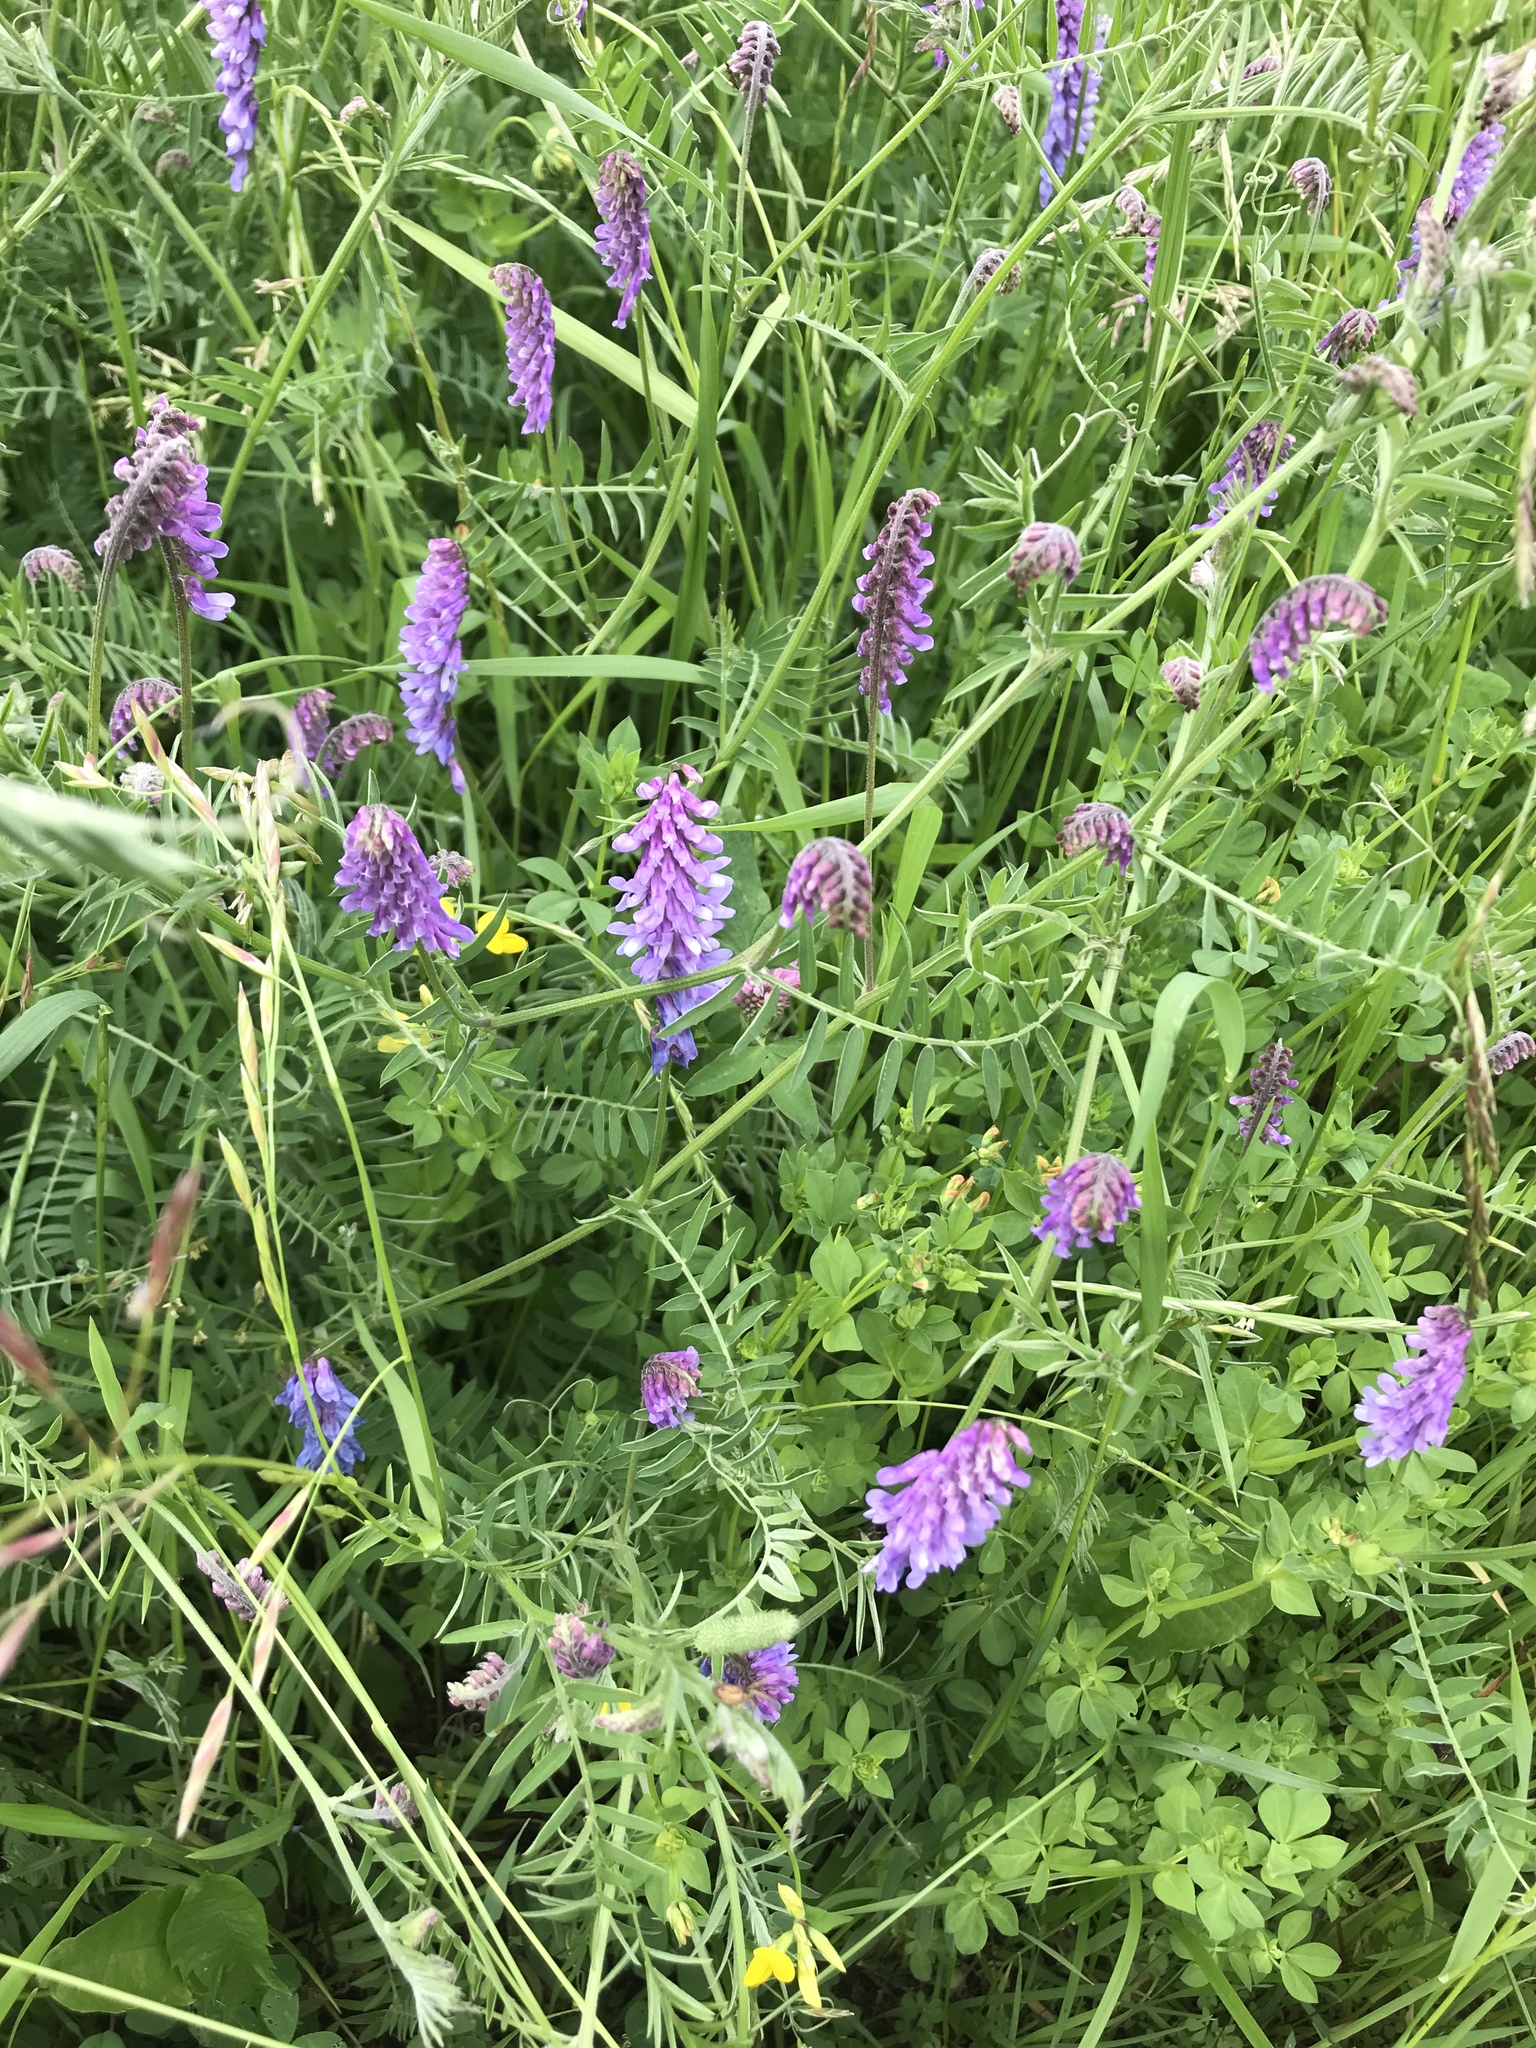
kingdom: Plantae
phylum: Tracheophyta
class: Magnoliopsida
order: Fabales
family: Fabaceae
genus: Vicia
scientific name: Vicia cracca
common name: Bird vetch
